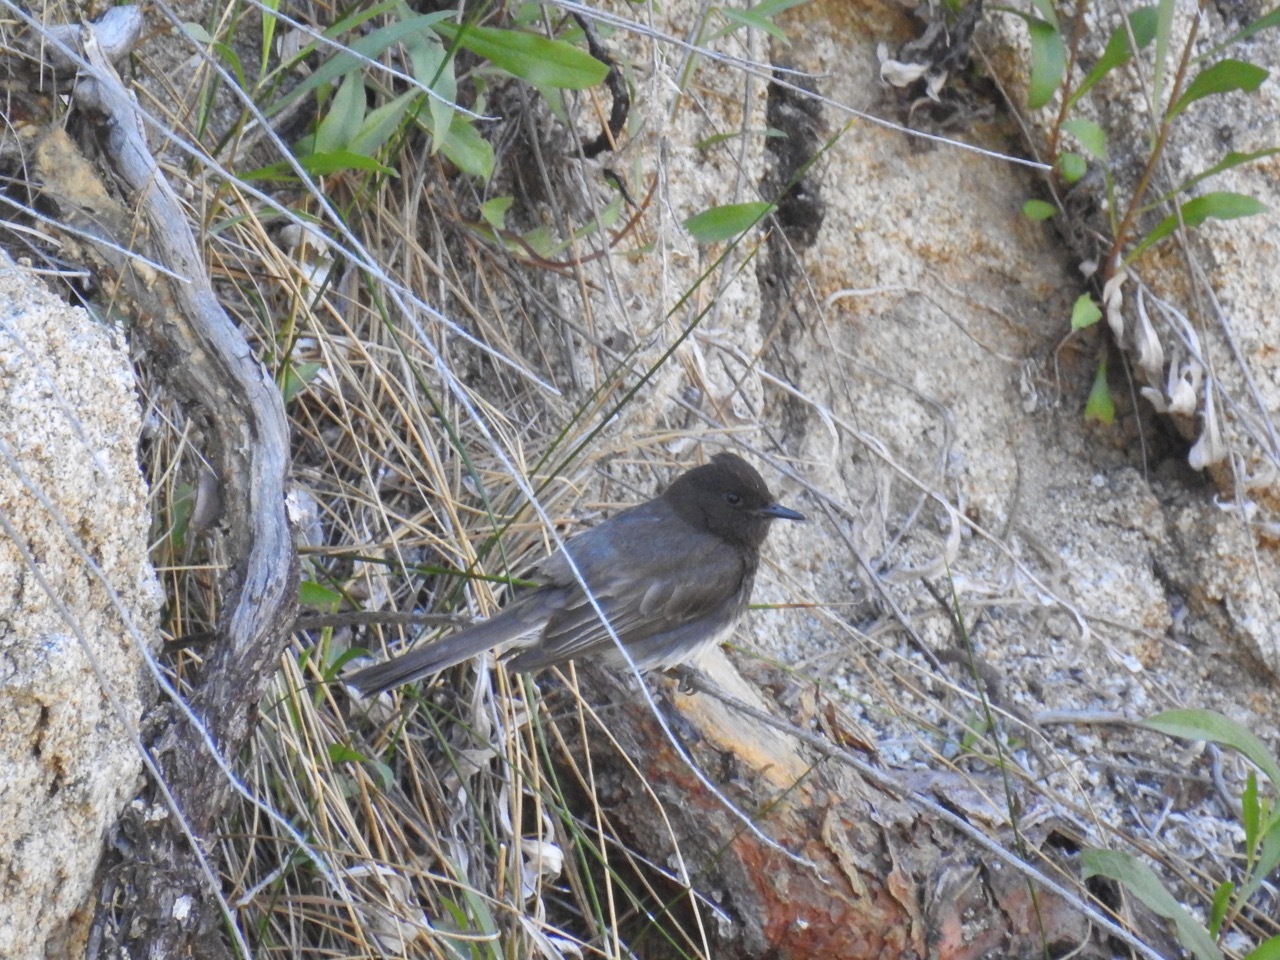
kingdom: Animalia
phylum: Chordata
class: Aves
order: Passeriformes
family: Tyrannidae
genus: Sayornis
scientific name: Sayornis nigricans
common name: Black phoebe
